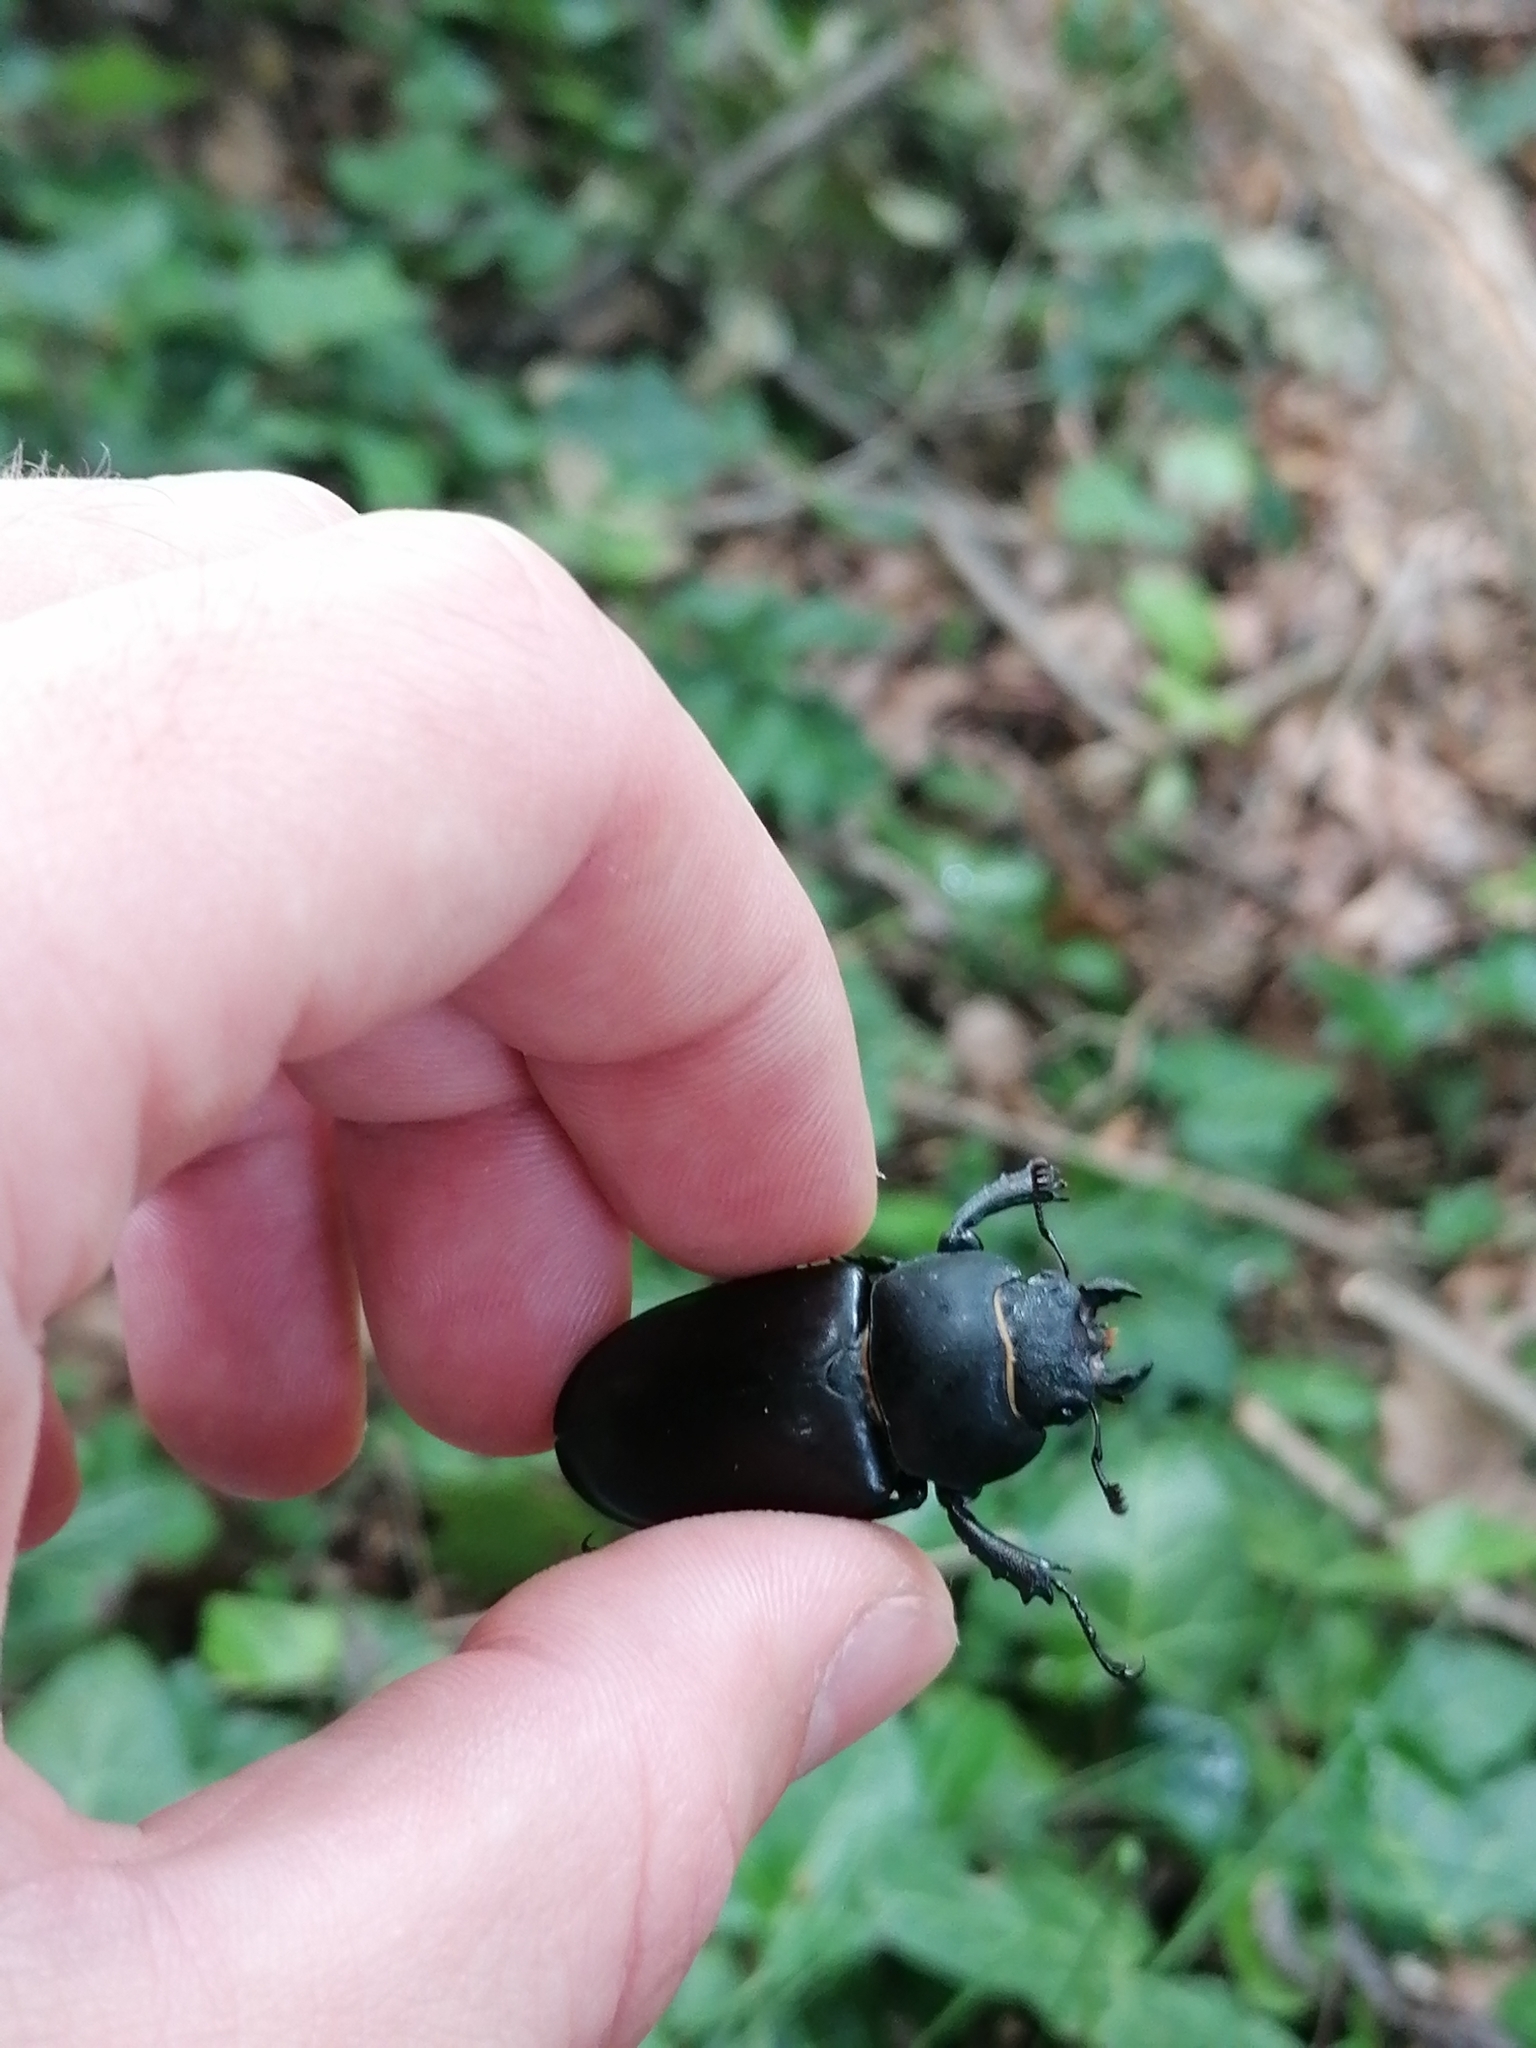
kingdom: Animalia
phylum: Arthropoda
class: Insecta
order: Coleoptera
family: Lucanidae
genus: Lucanus
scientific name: Lucanus cervus
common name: Stag beetle
